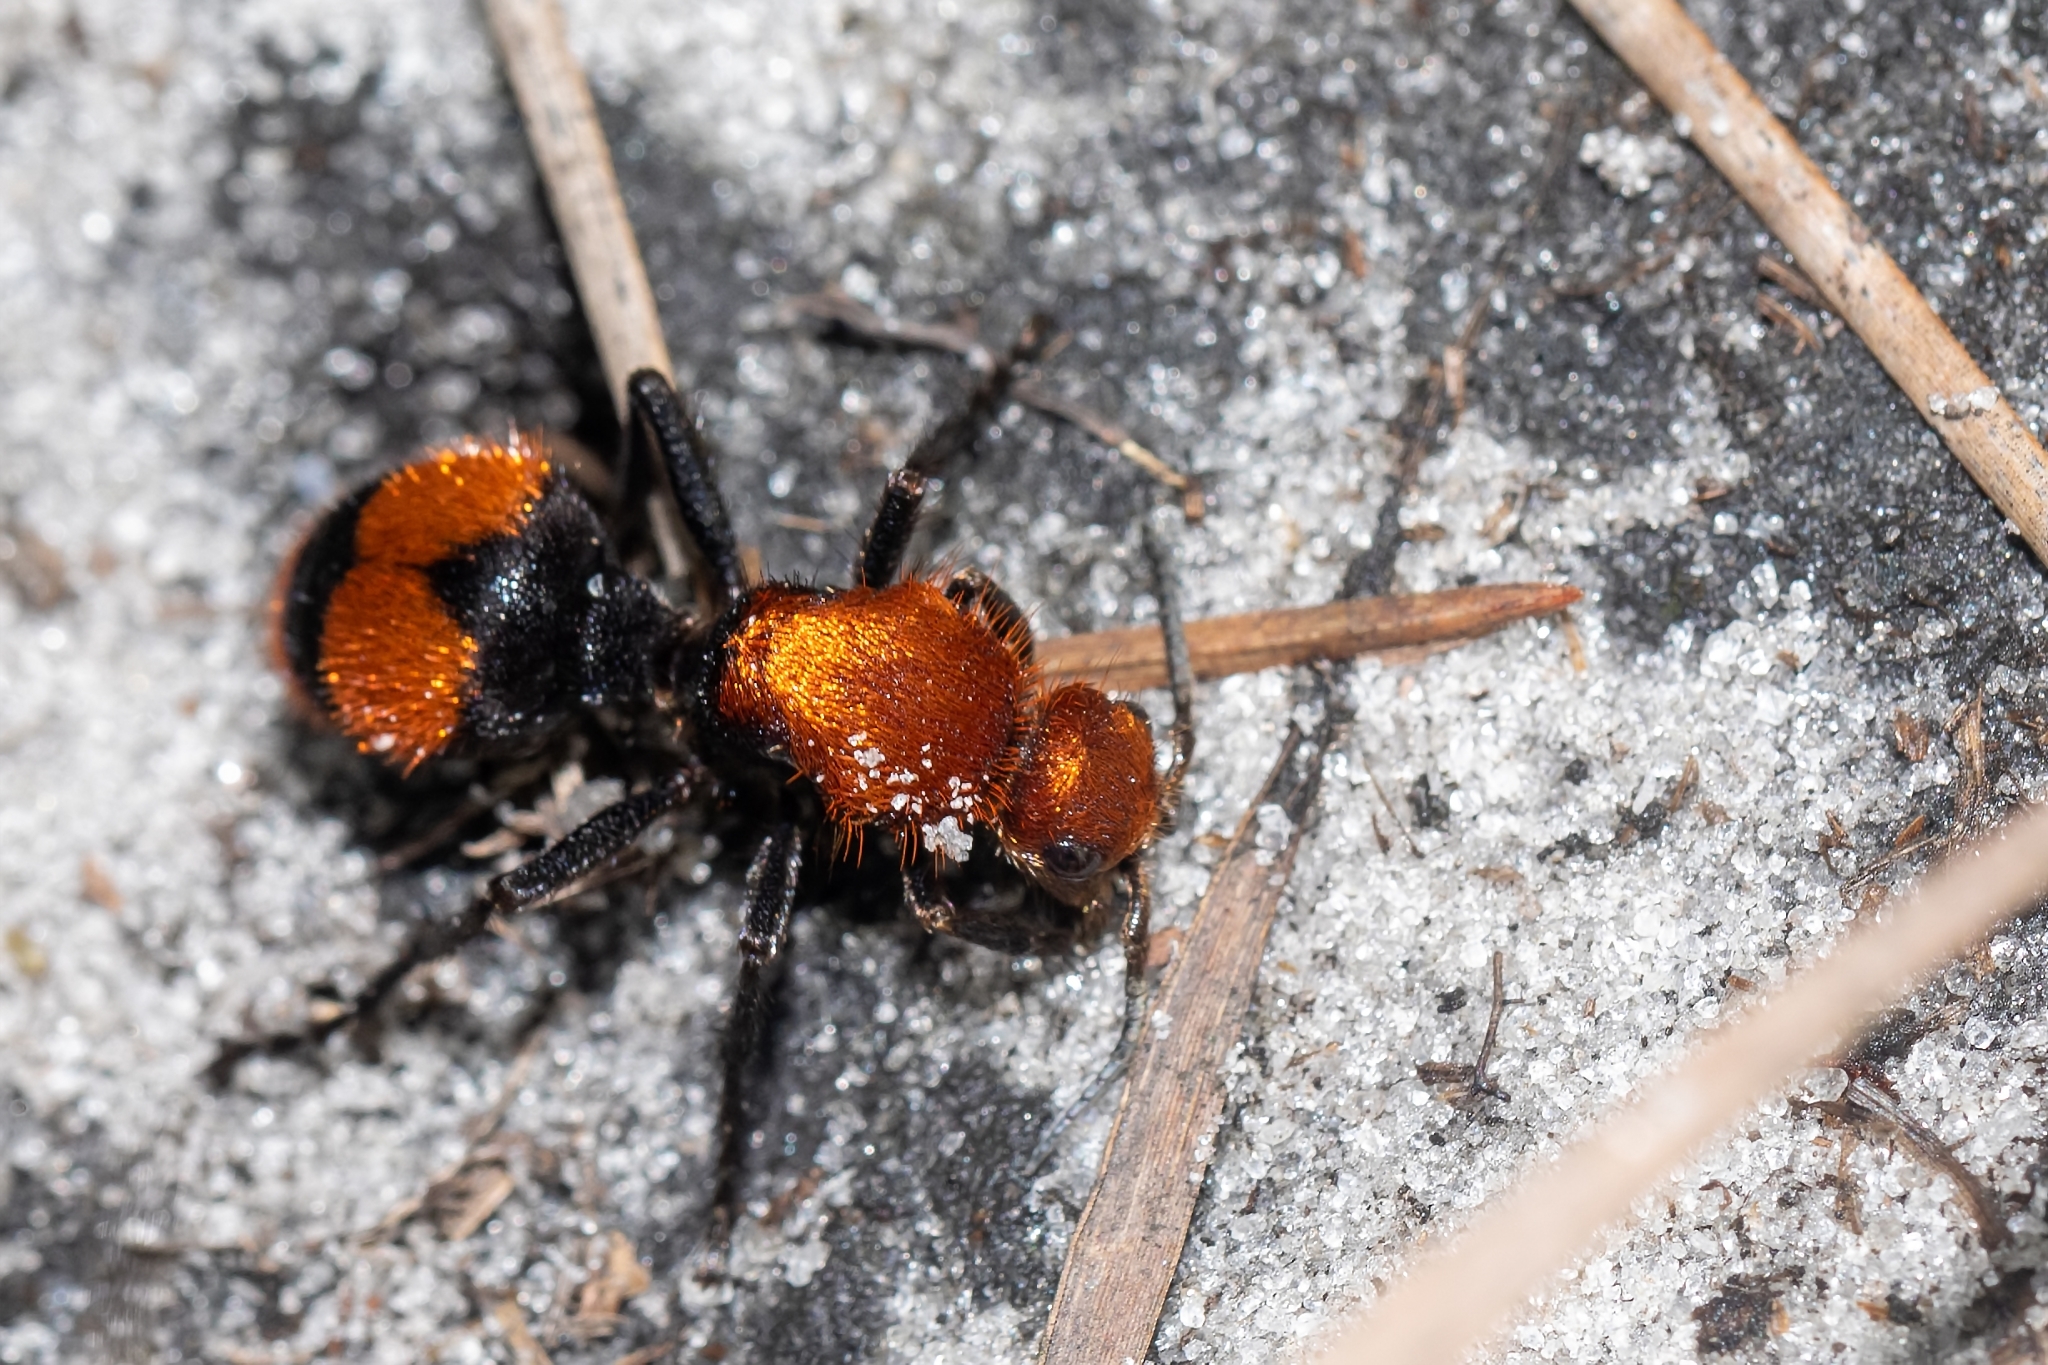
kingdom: Animalia
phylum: Arthropoda
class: Insecta
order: Hymenoptera
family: Mutillidae
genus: Dasymutilla
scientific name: Dasymutilla occidentalis
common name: Common eastern velvet ant
